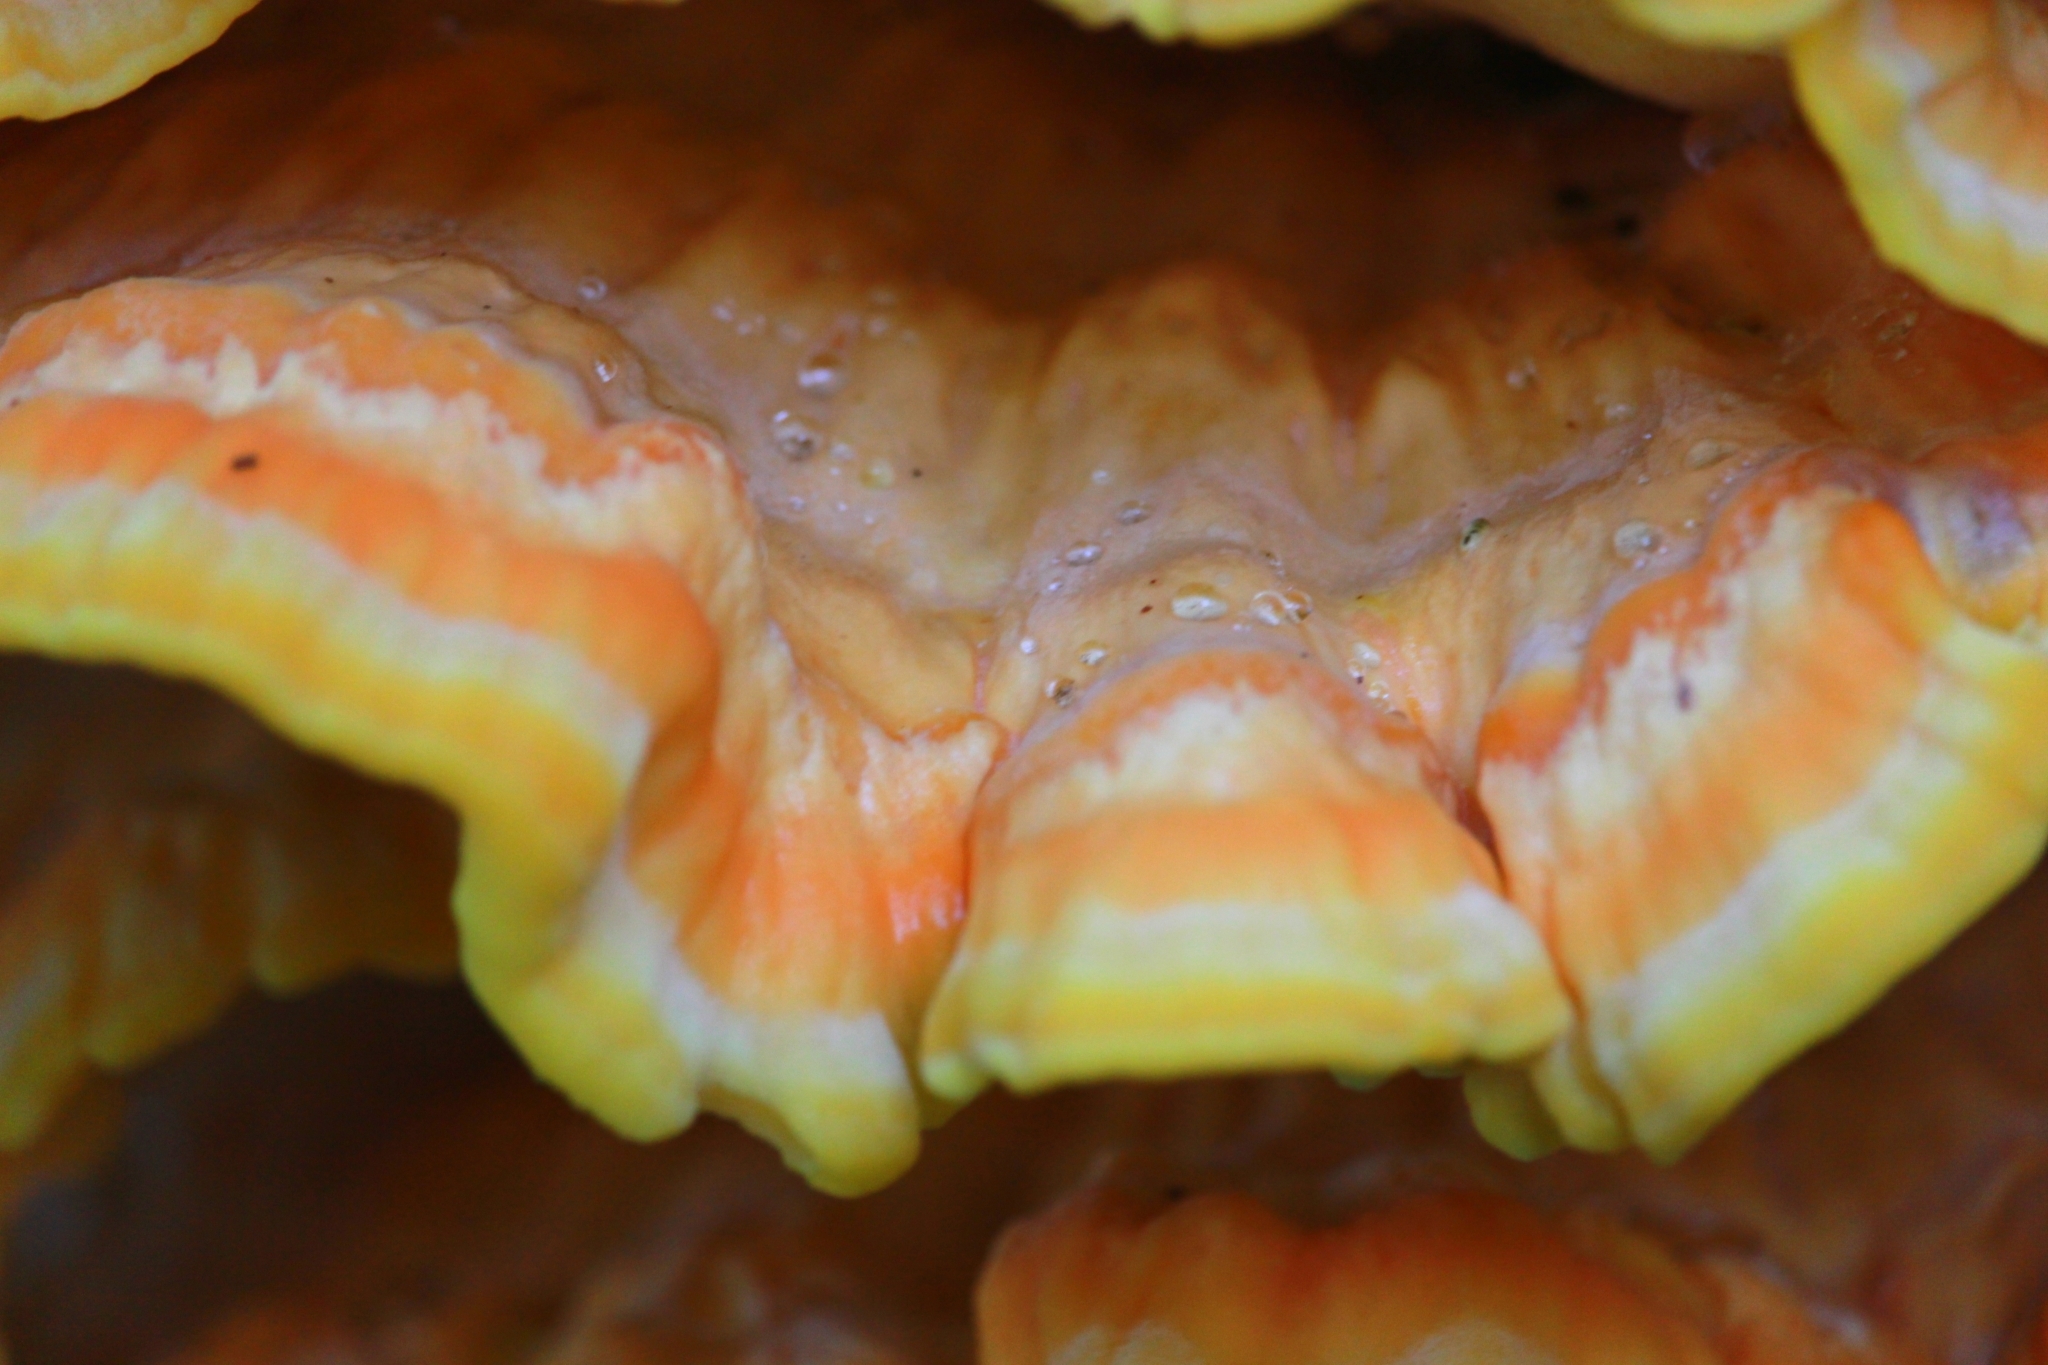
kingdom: Fungi
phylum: Basidiomycota
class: Agaricomycetes
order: Polyporales
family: Laetiporaceae
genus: Laetiporus
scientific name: Laetiporus sulphureus
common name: Chicken of the woods
